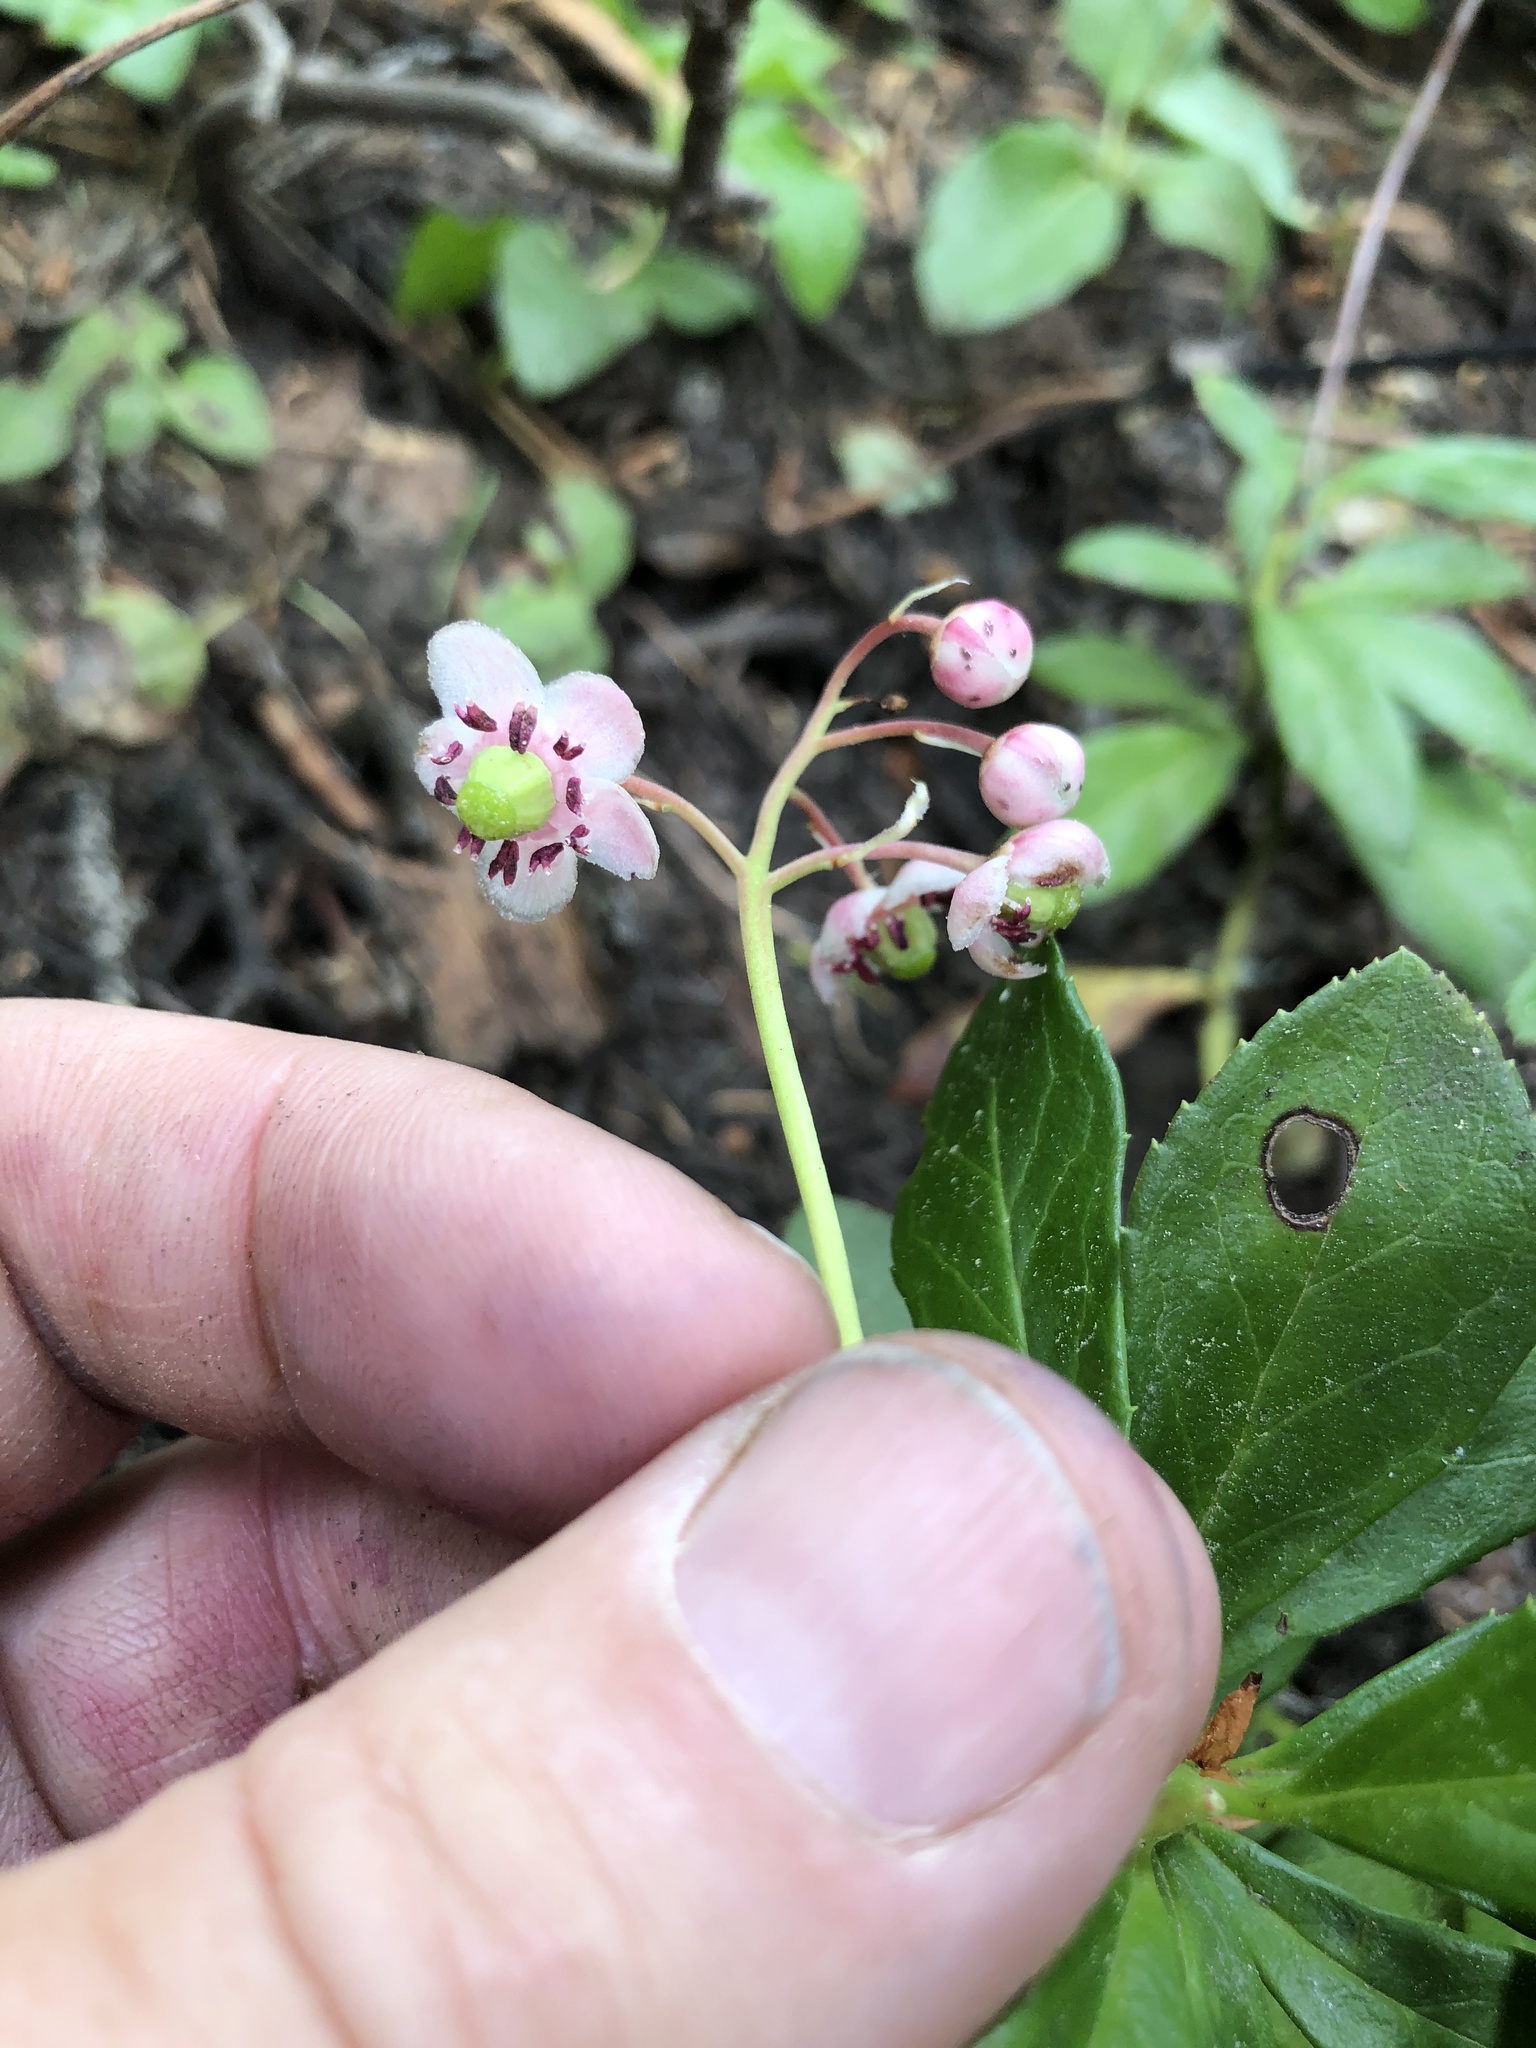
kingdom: Plantae
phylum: Tracheophyta
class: Magnoliopsida
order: Ericales
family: Ericaceae
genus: Chimaphila
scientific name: Chimaphila umbellata
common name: Pipsissewa
